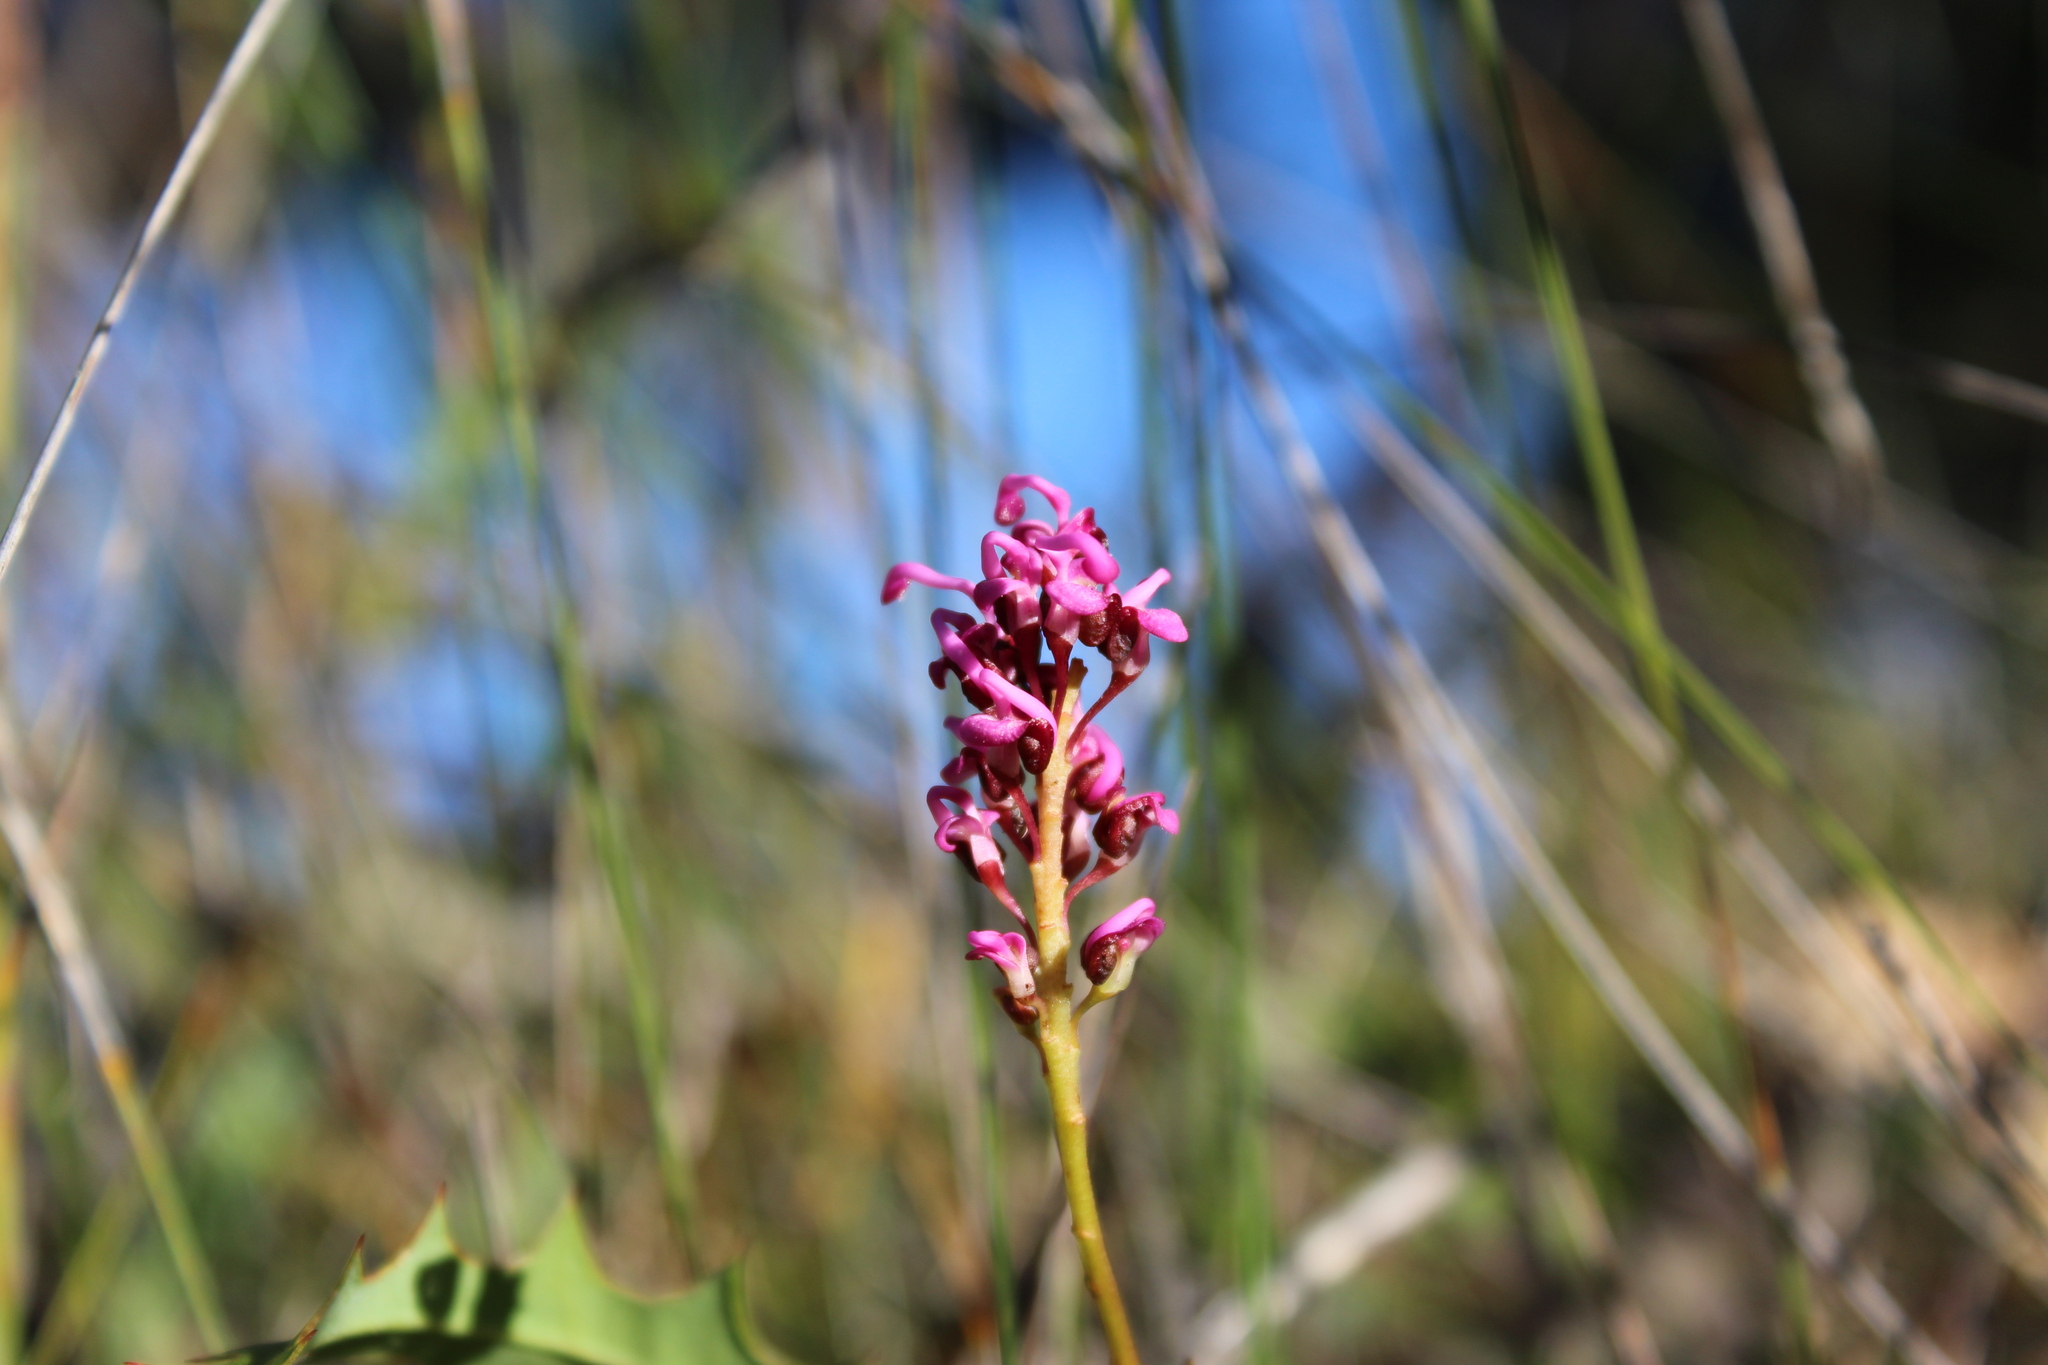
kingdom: Plantae
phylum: Tracheophyta
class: Magnoliopsida
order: Proteales
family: Proteaceae
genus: Grevillea
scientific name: Grevillea quercifolia
